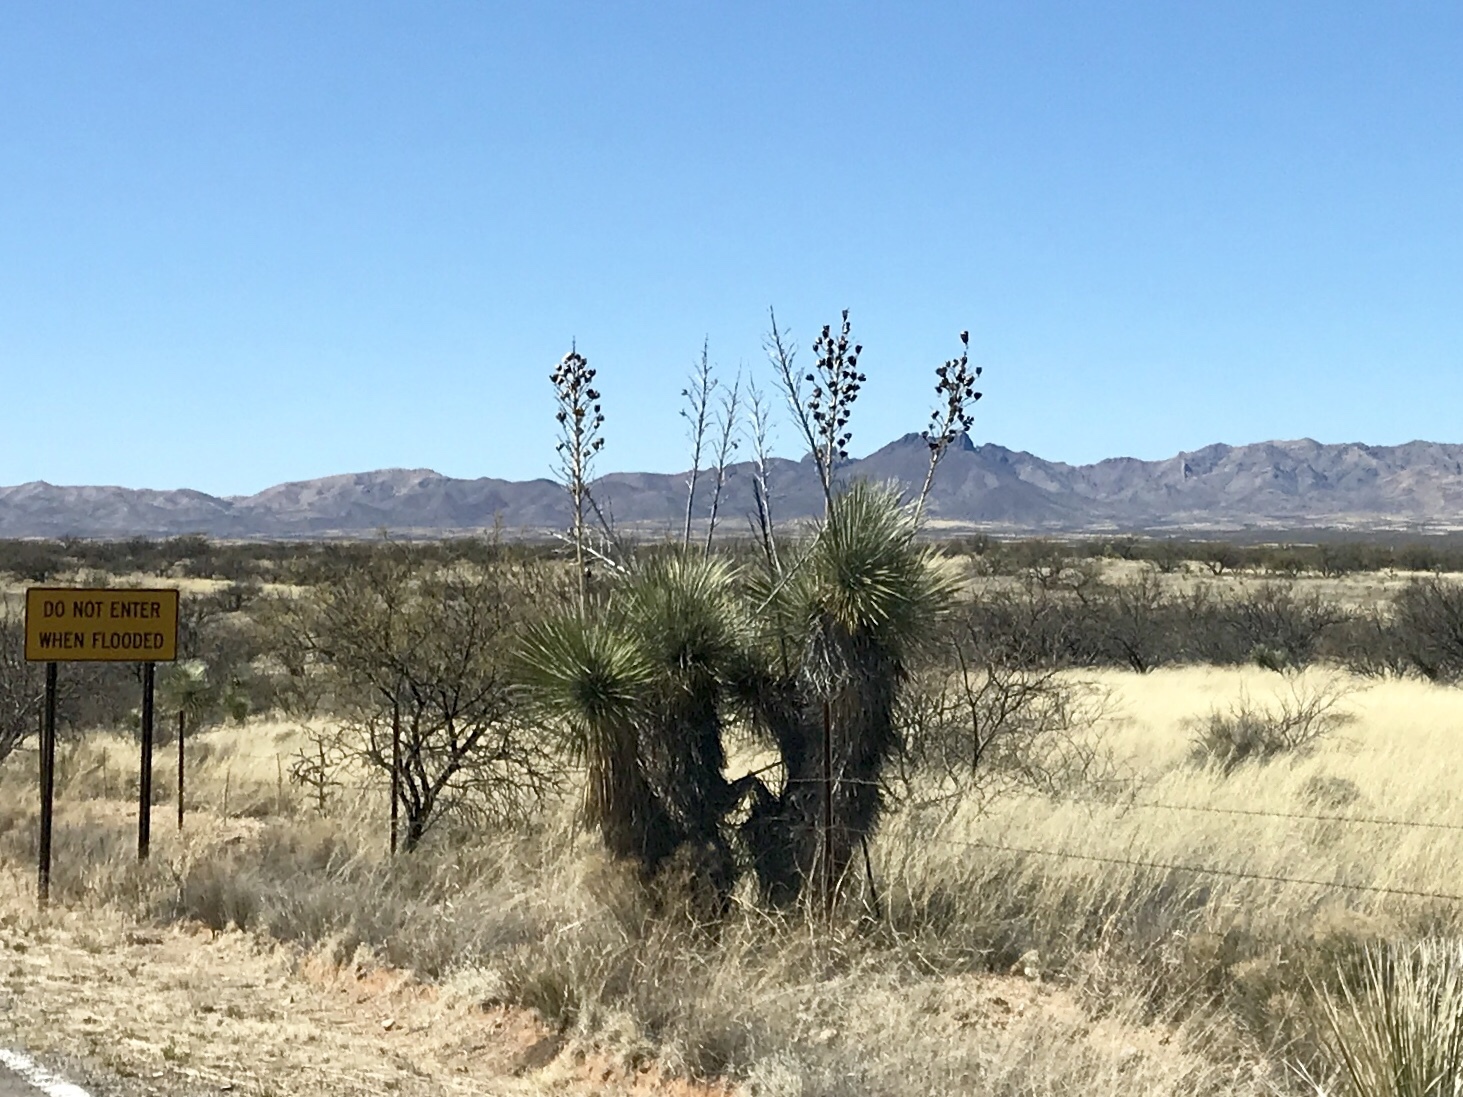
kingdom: Plantae
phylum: Tracheophyta
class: Liliopsida
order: Asparagales
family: Asparagaceae
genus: Yucca
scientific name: Yucca elata
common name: Palmella
